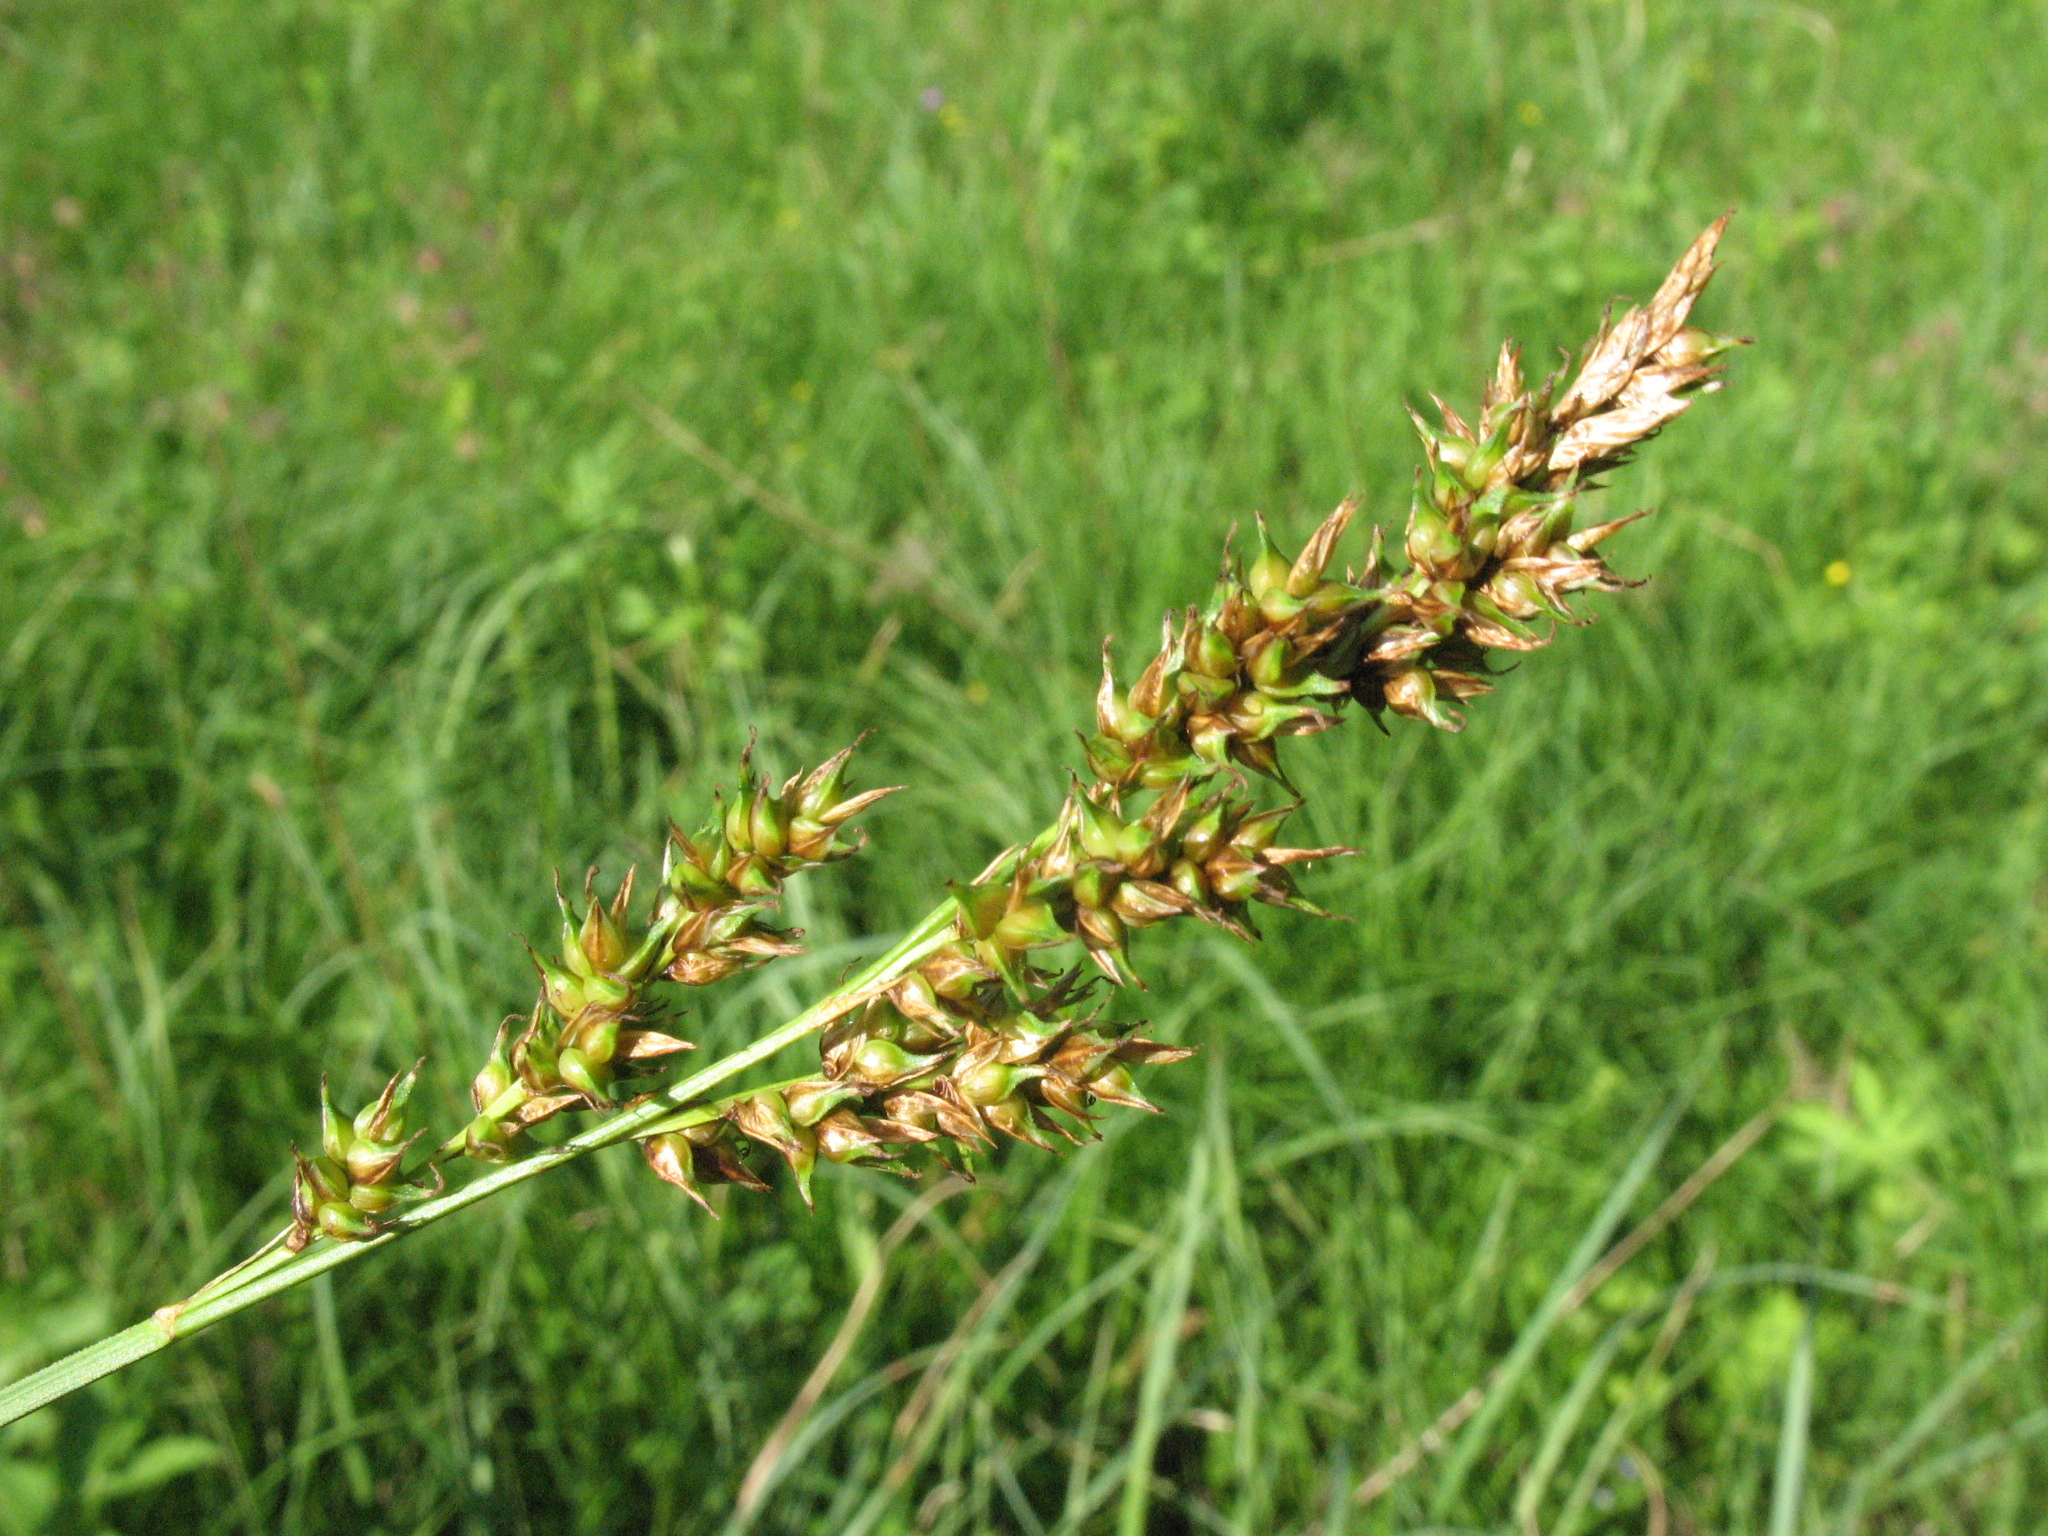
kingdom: Plantae
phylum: Tracheophyta
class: Liliopsida
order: Poales
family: Cyperaceae
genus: Carex
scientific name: Carex appropinquata
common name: Fibrous tussock-sedge
